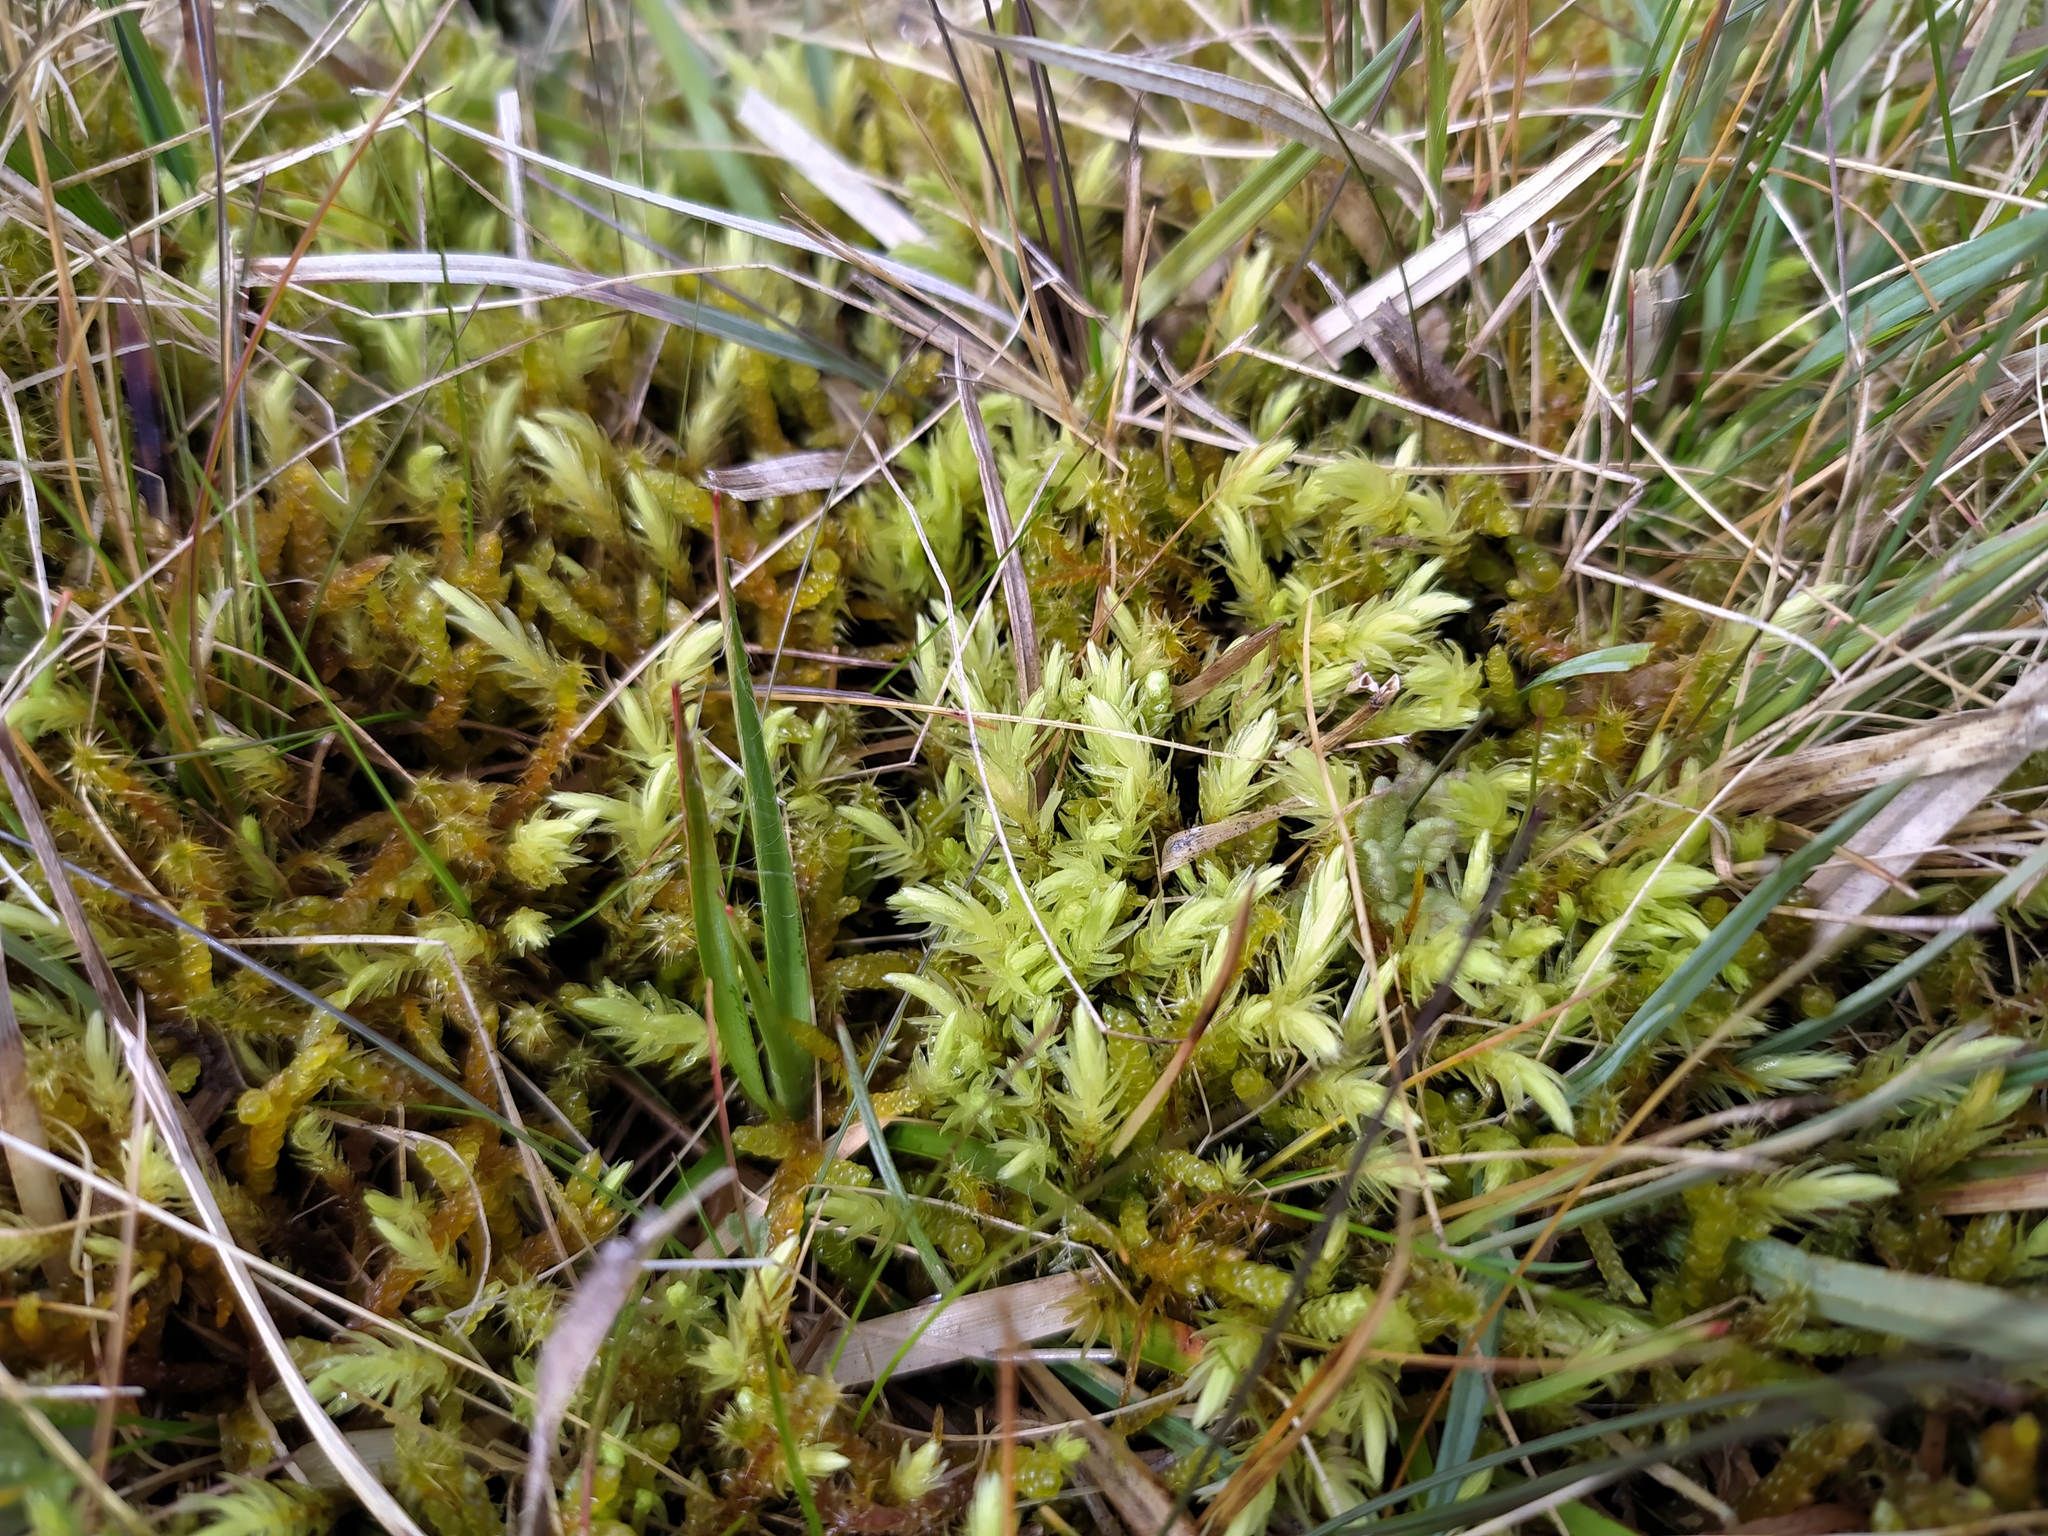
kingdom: Plantae
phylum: Bryophyta
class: Bryopsida
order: Aulacomniales
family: Aulacomniaceae
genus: Aulacomnium
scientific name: Aulacomnium palustre
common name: Bog groove-moss
